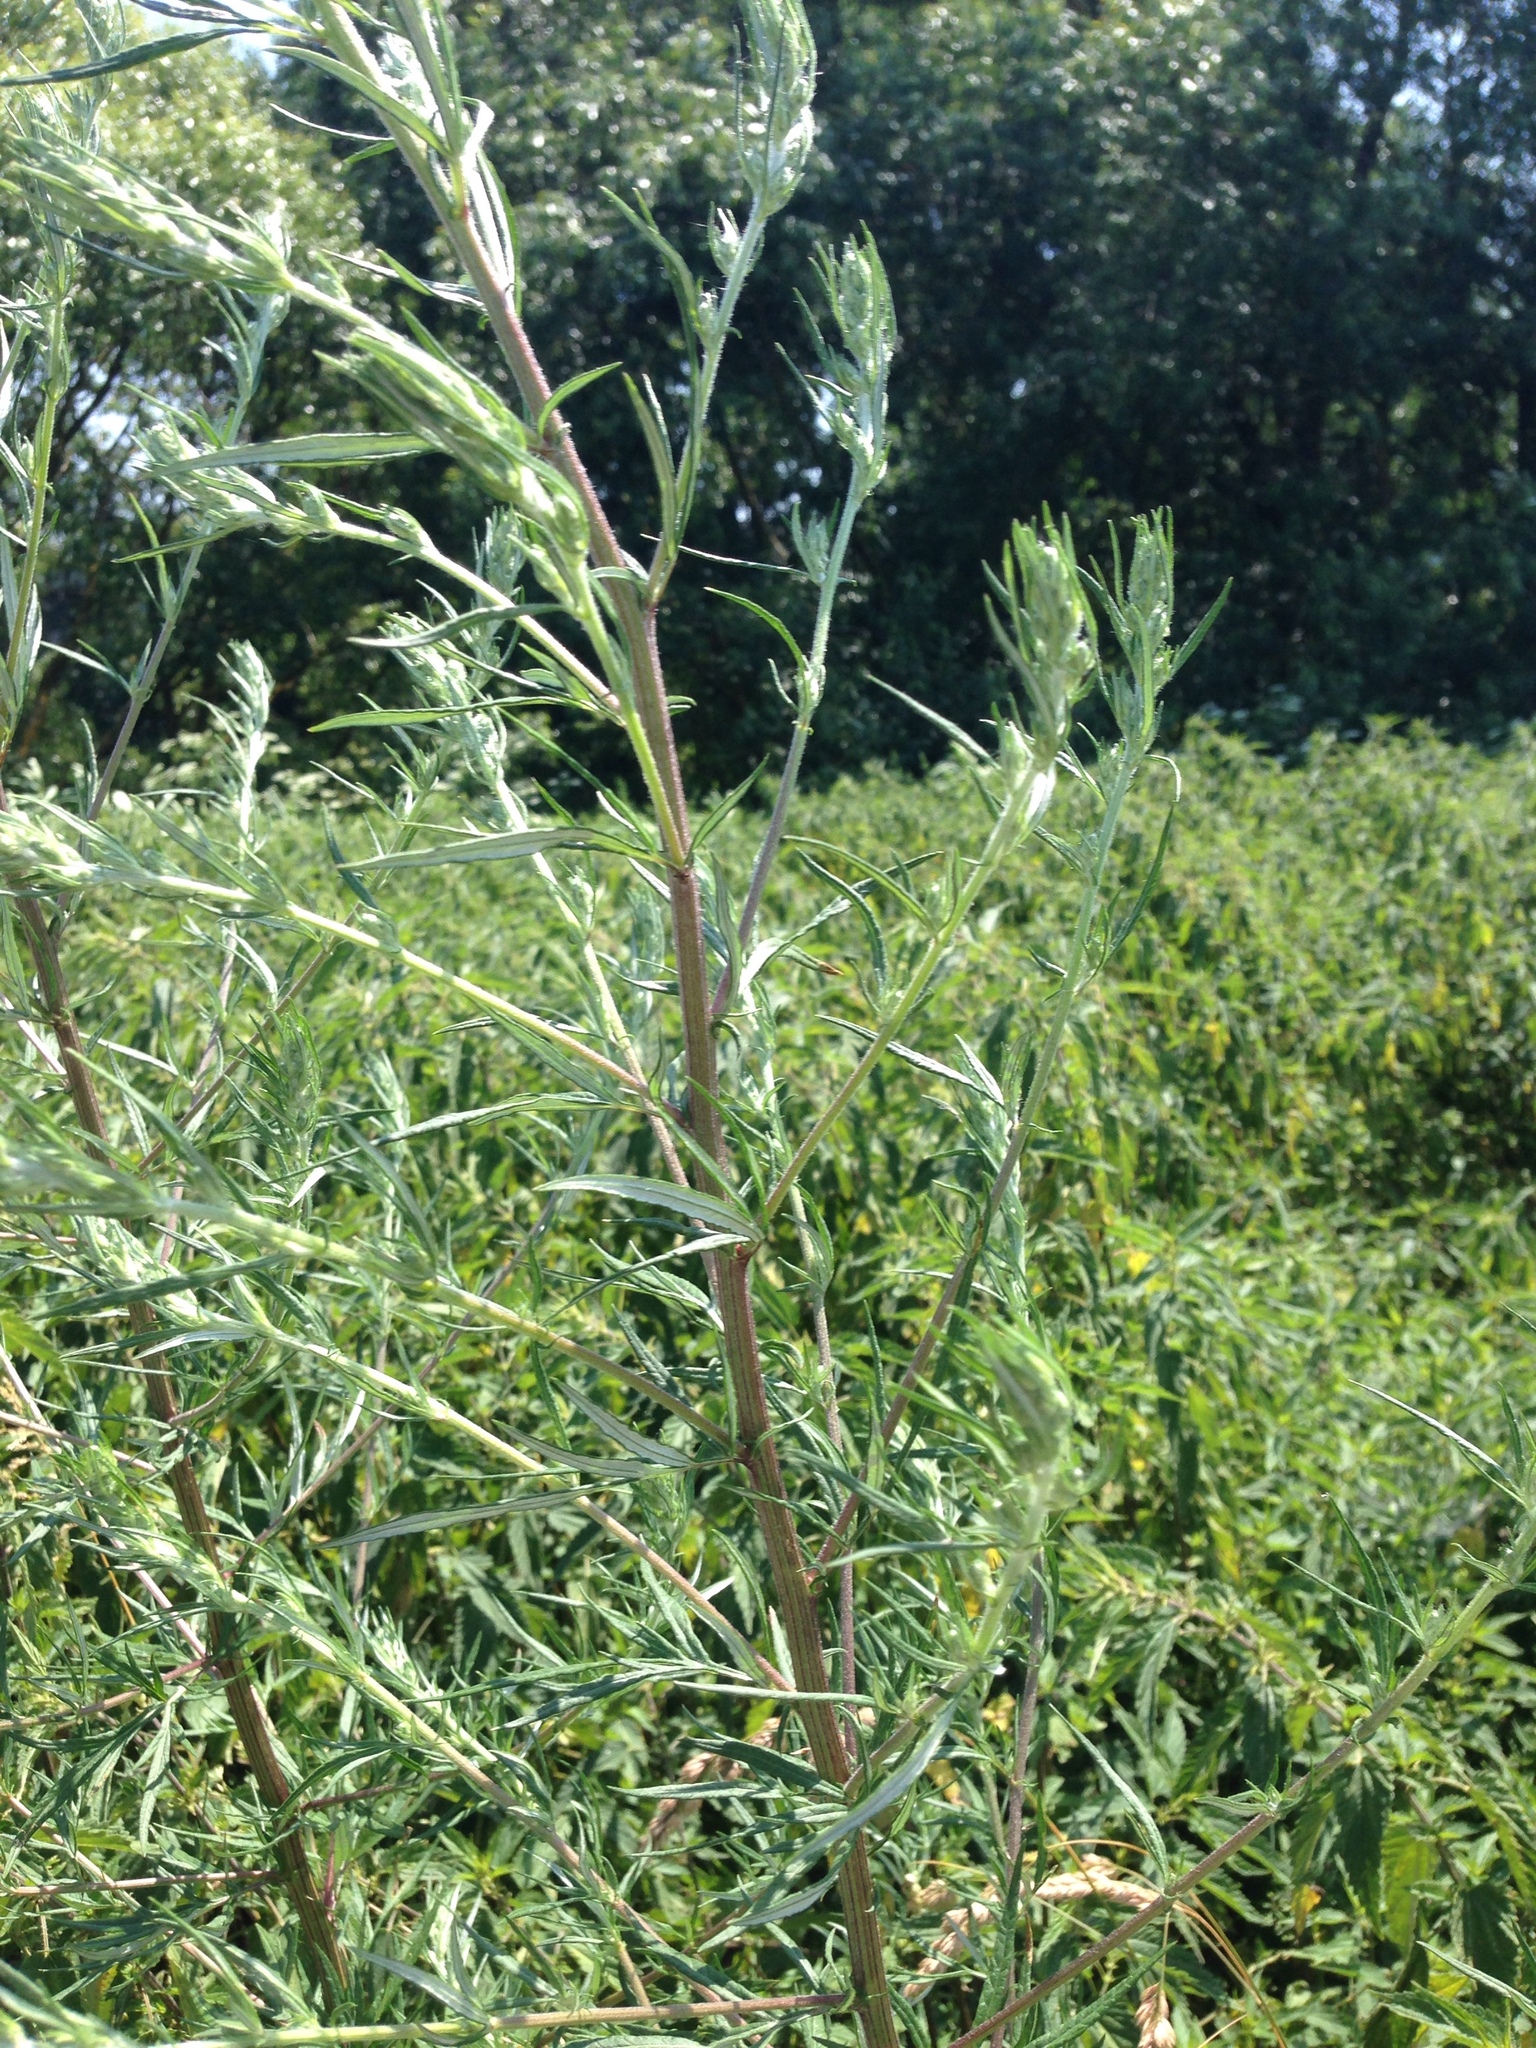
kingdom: Plantae
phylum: Tracheophyta
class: Magnoliopsida
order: Asterales
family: Asteraceae
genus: Artemisia
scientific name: Artemisia vulgaris
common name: Mugwort
